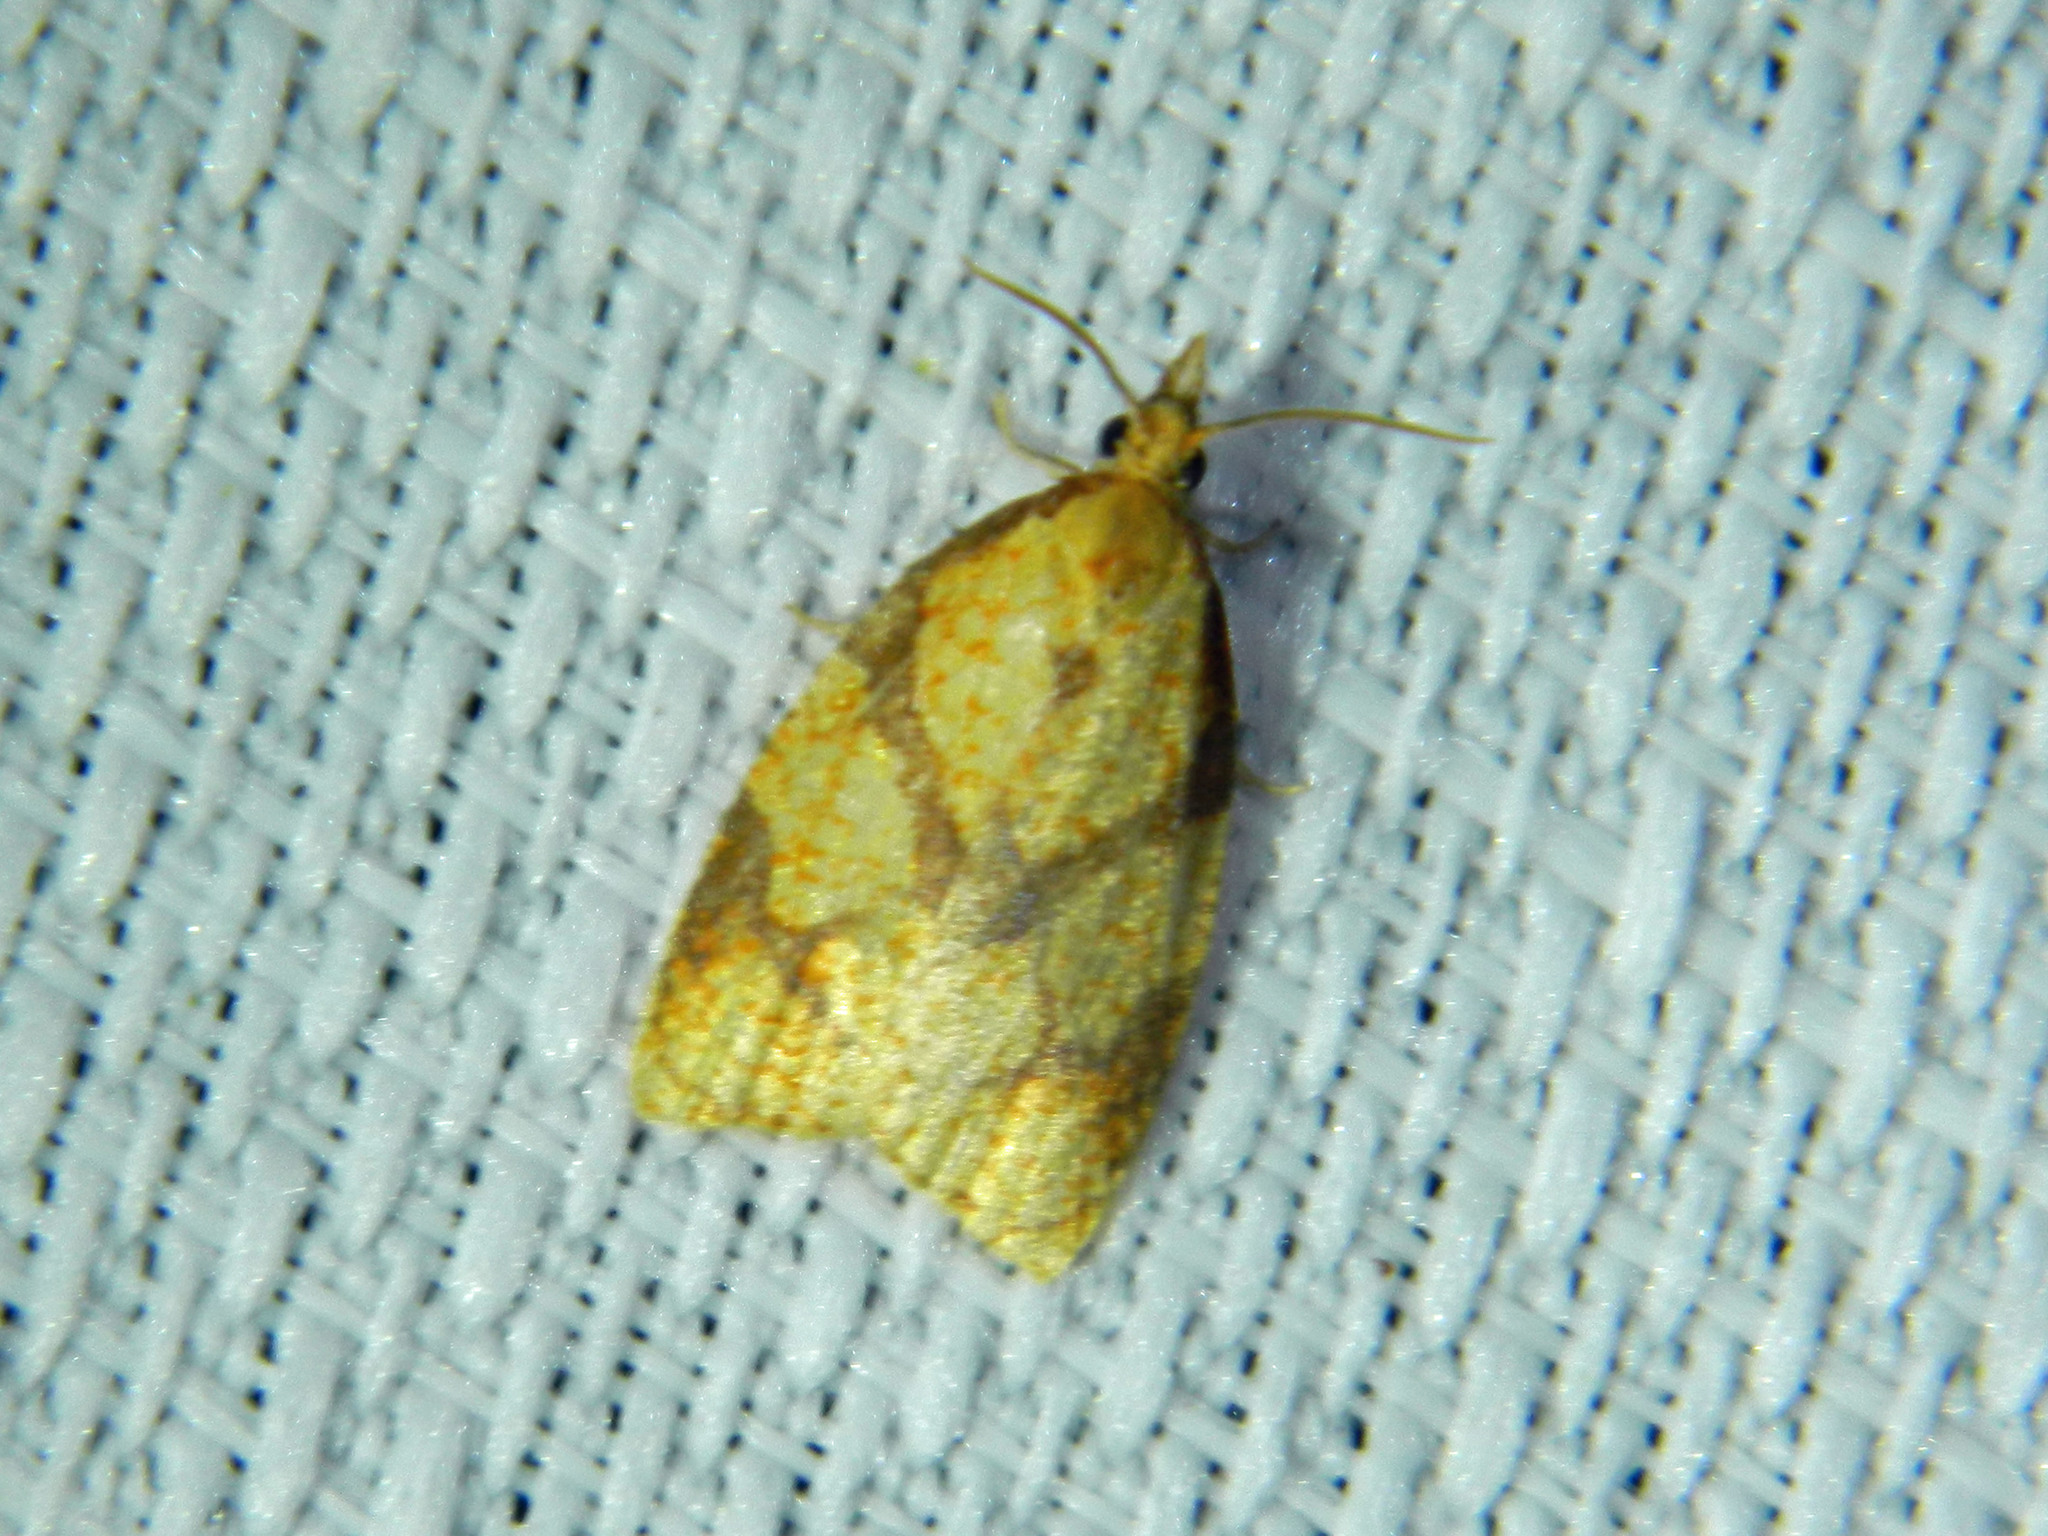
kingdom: Animalia
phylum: Arthropoda
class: Insecta
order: Lepidoptera
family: Tortricidae
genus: Cenopis
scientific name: Cenopis reticulatana
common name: Reticulated fruitworm moth
